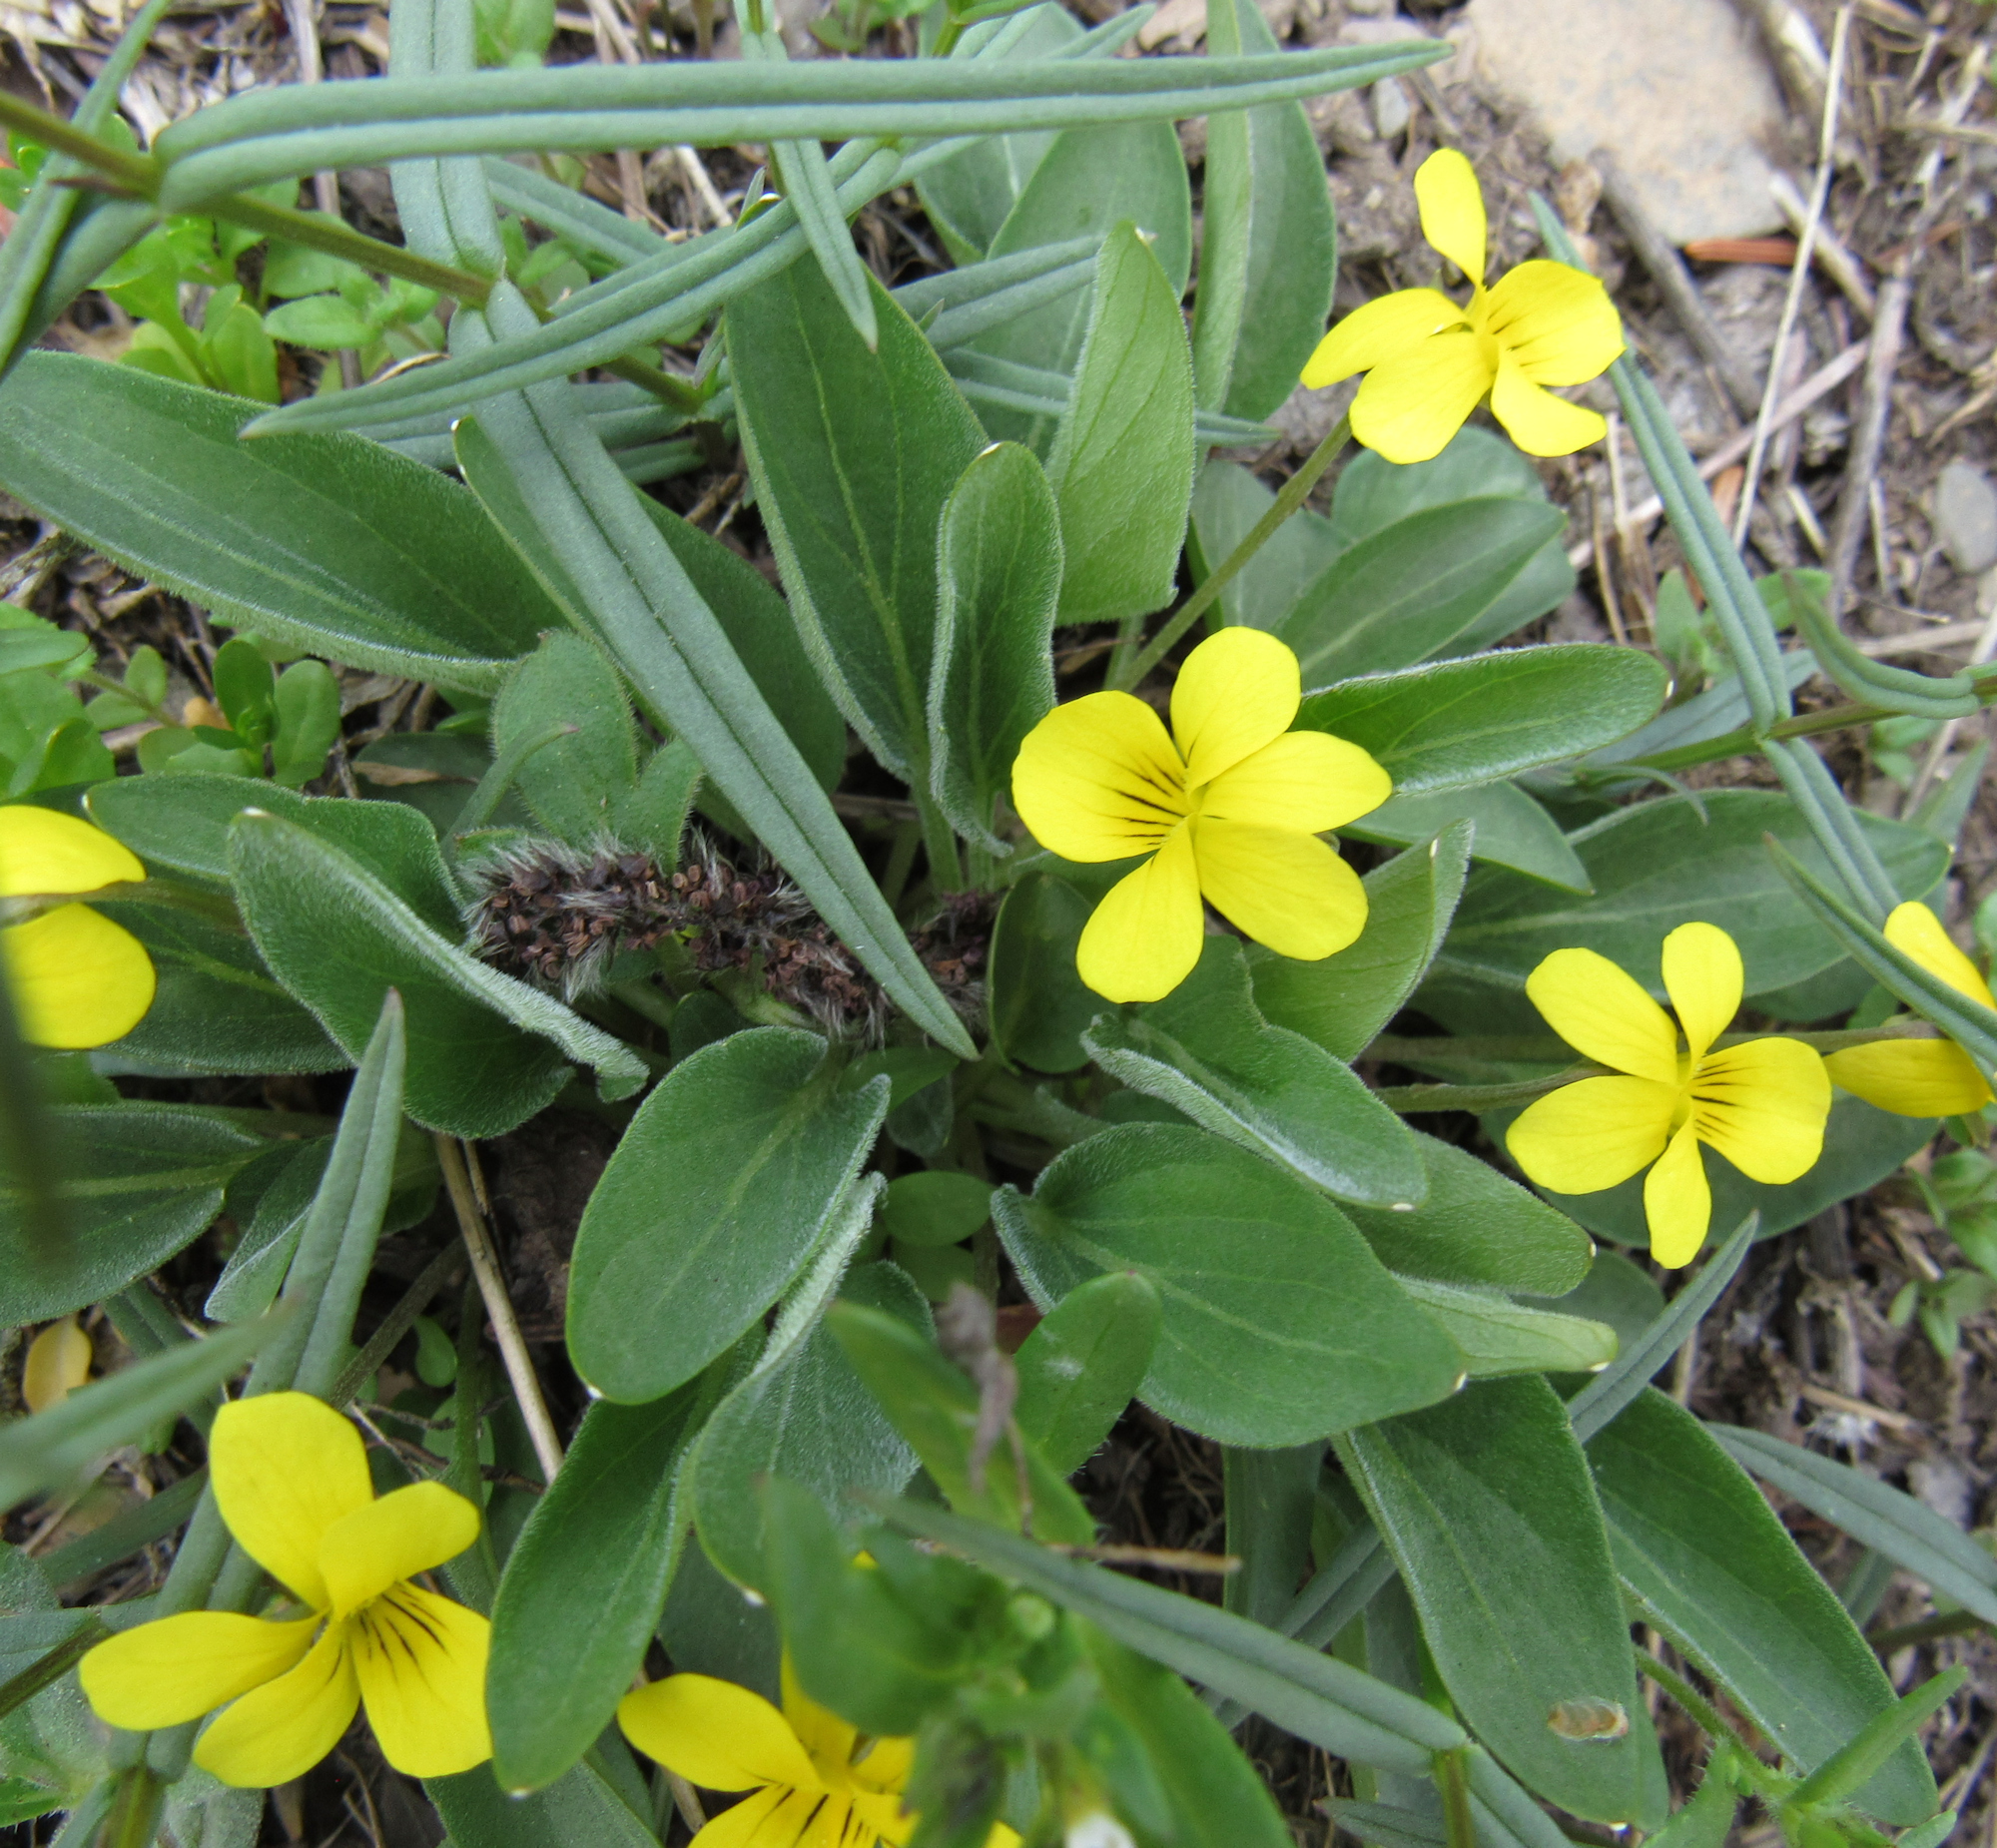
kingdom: Plantae
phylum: Tracheophyta
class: Magnoliopsida
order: Malpighiales
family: Violaceae
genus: Viola
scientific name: Viola vallicola
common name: Valley violet
